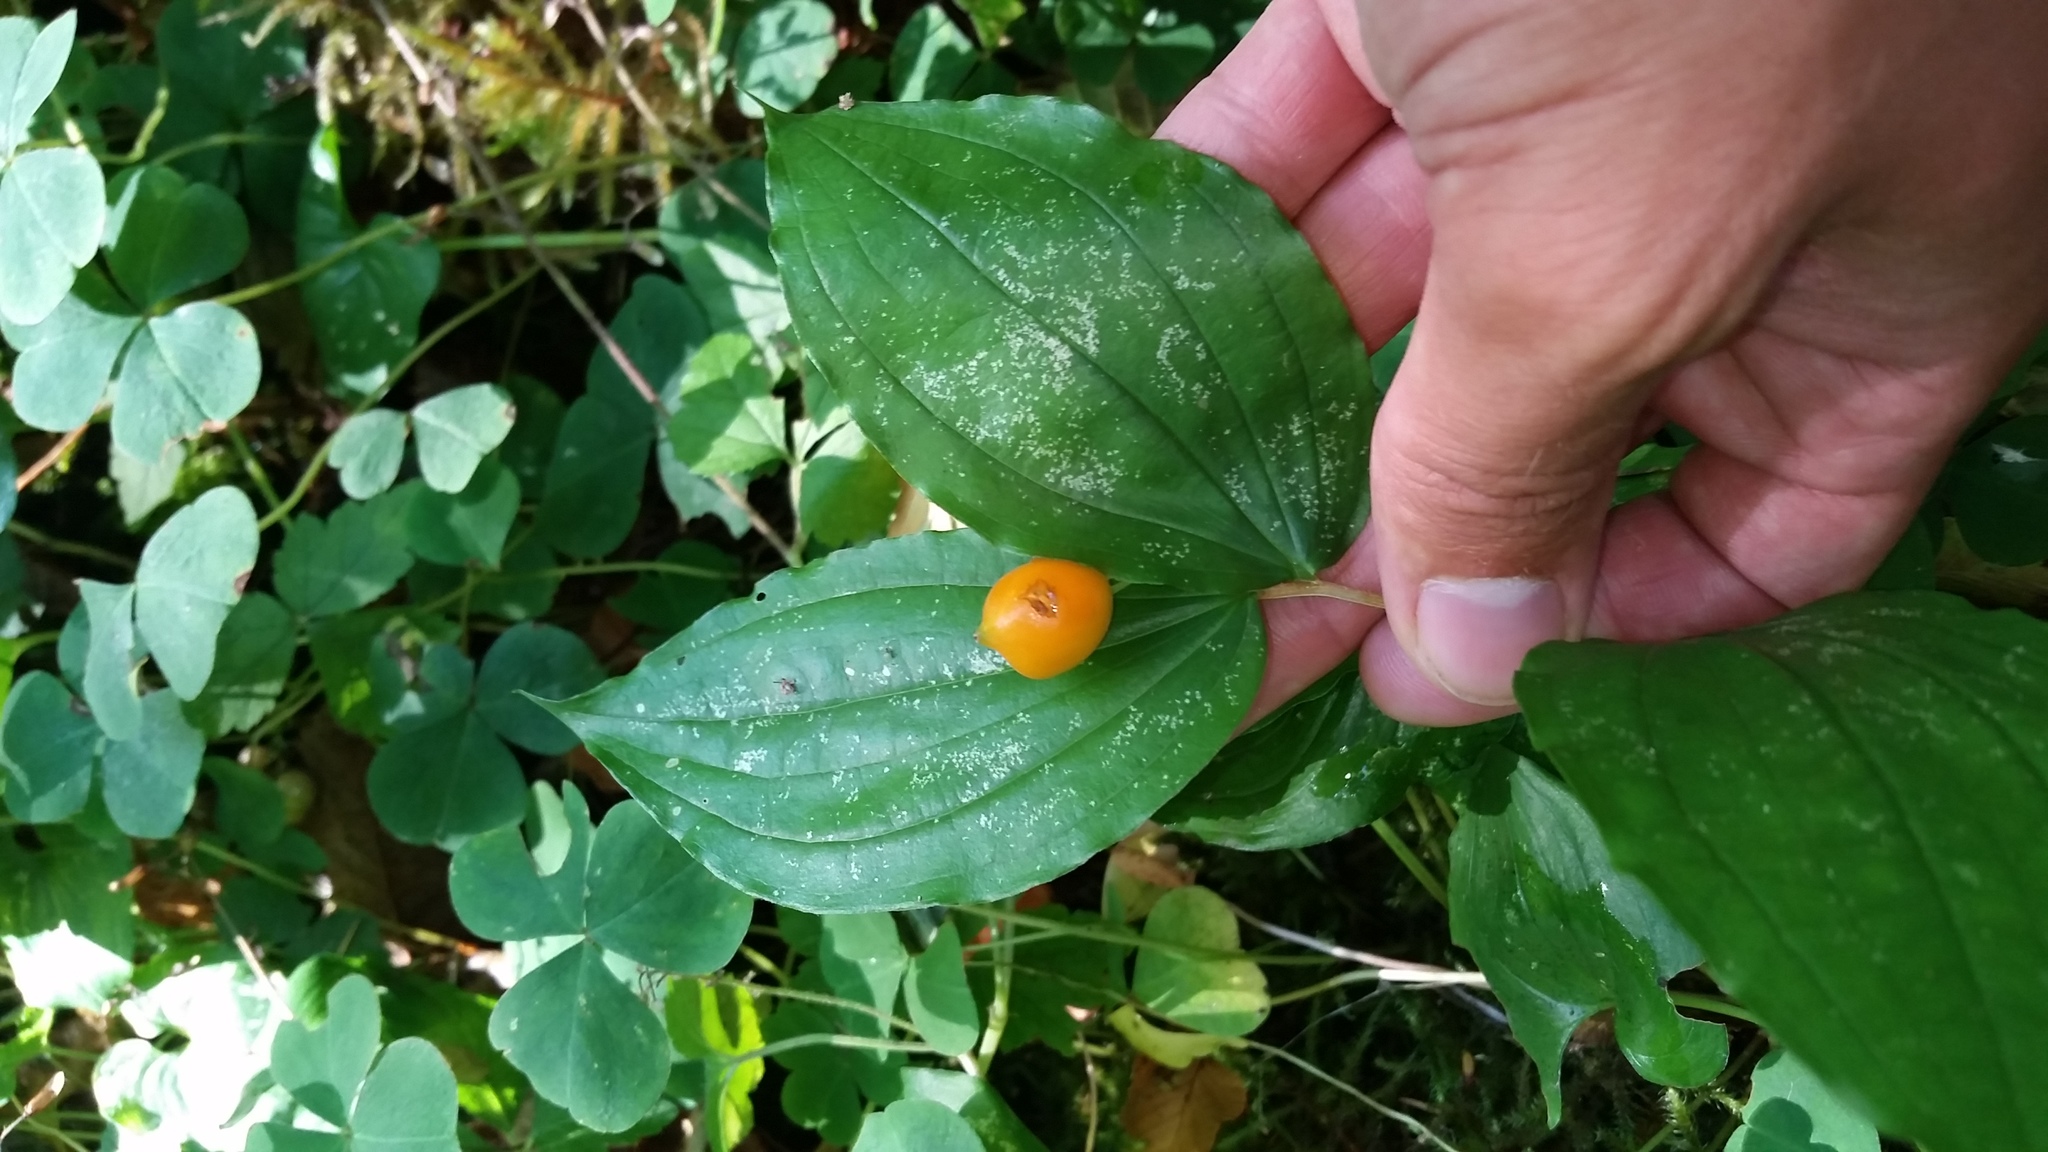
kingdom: Plantae
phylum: Tracheophyta
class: Liliopsida
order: Liliales
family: Liliaceae
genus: Prosartes
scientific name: Prosartes smithii
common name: Fairy-lantern
